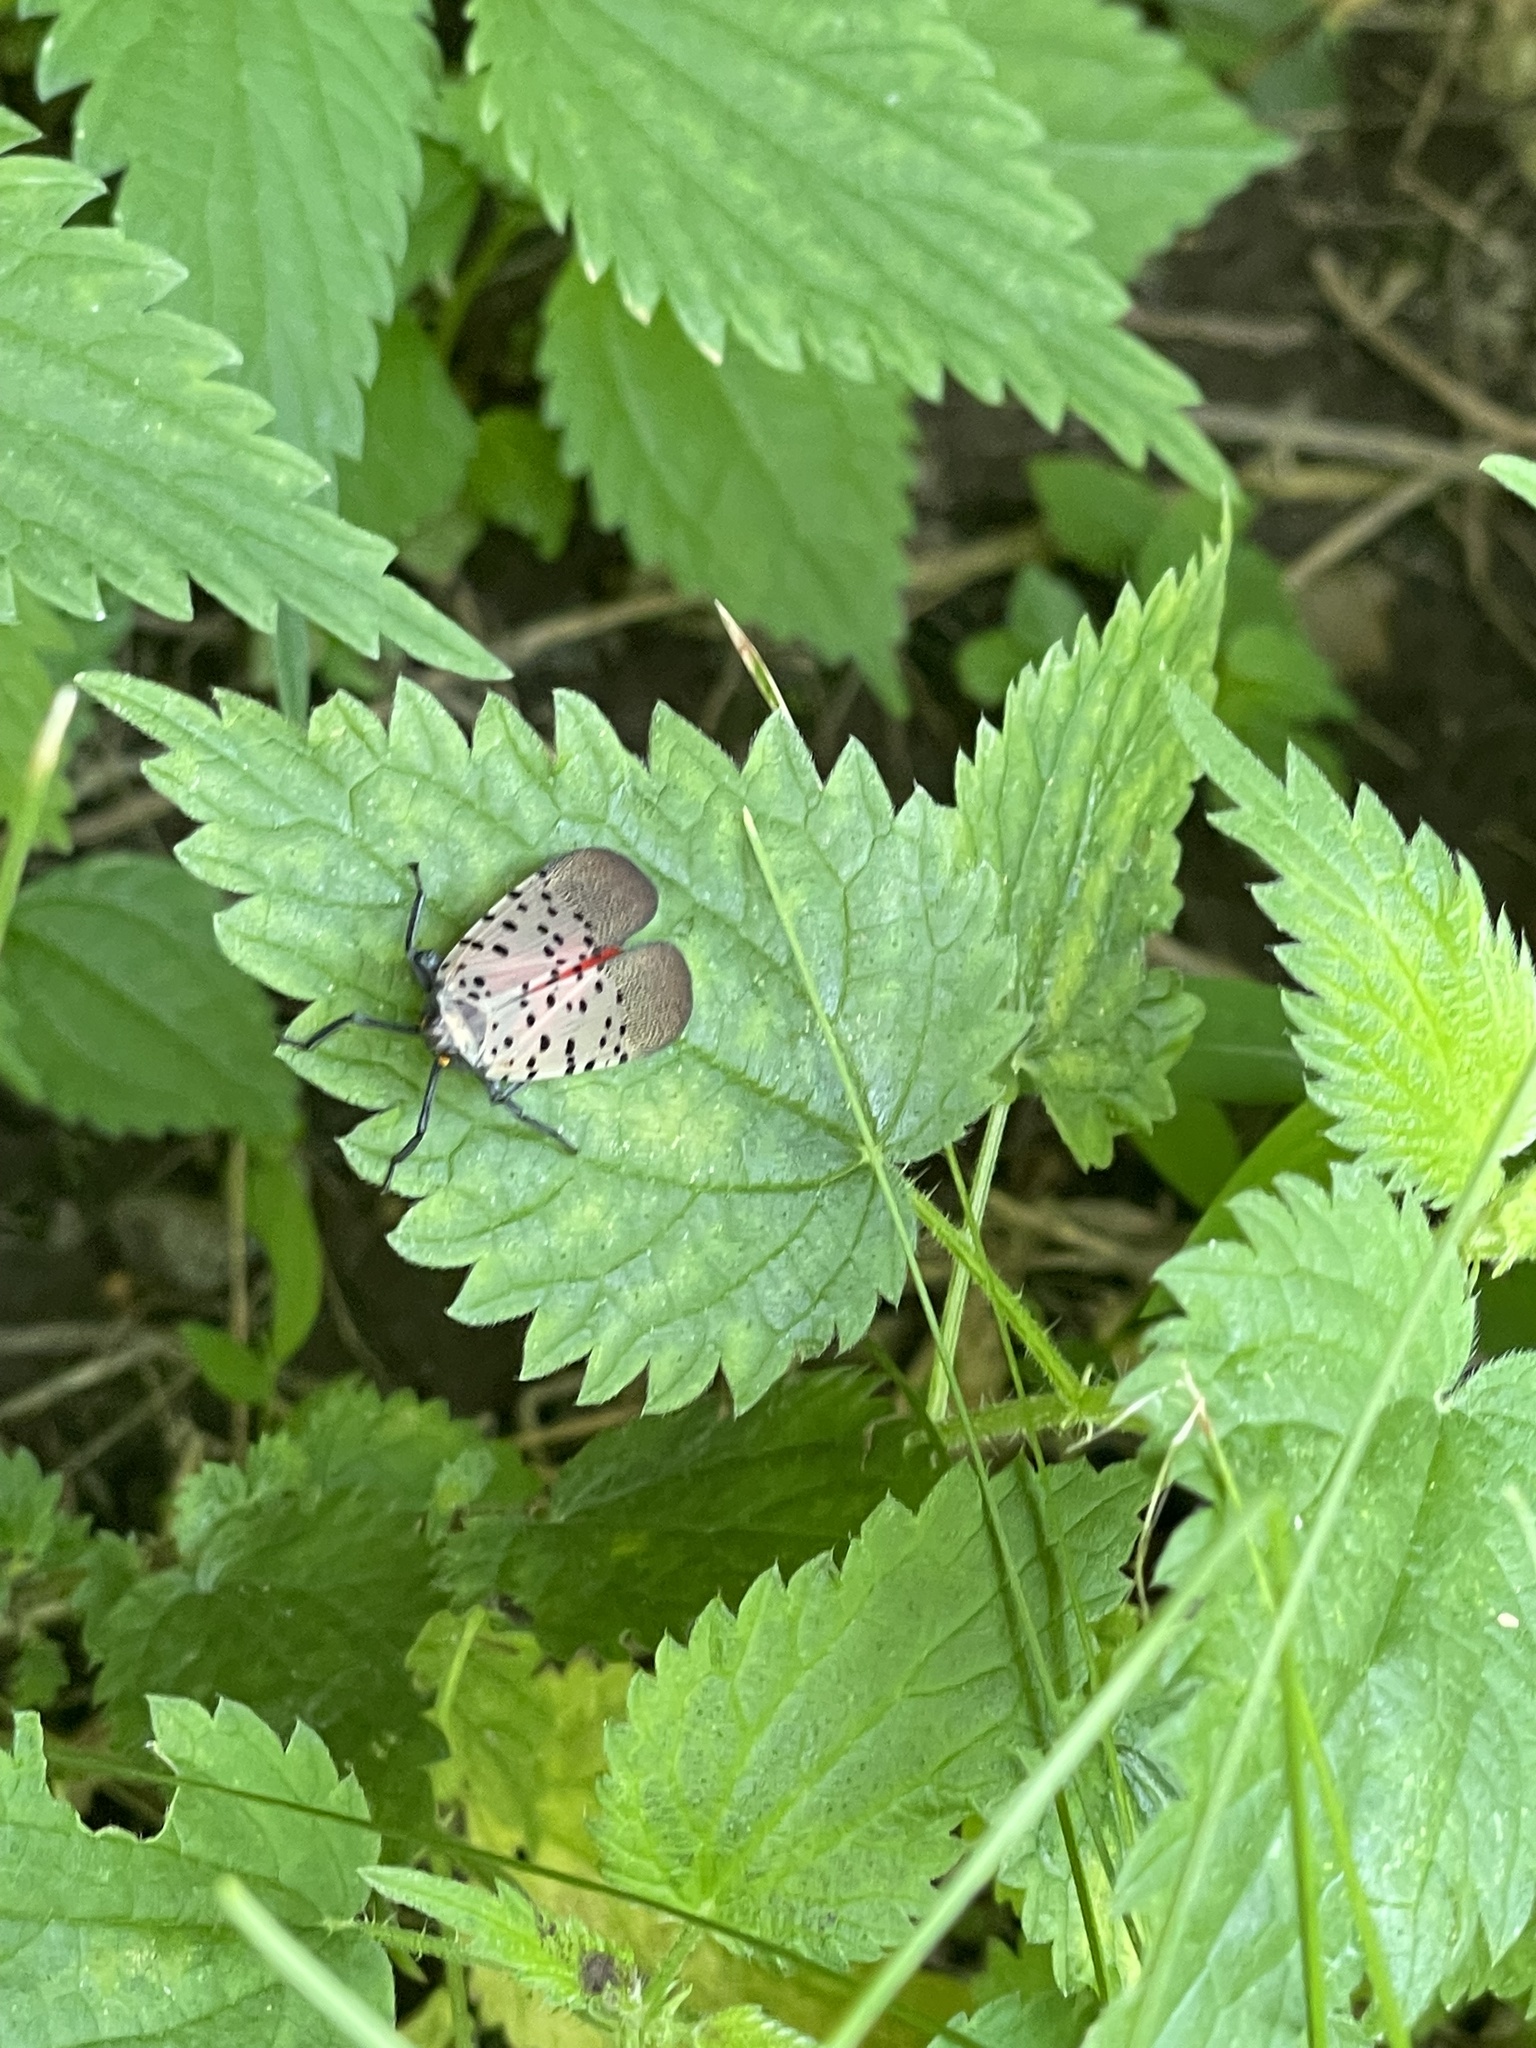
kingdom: Animalia
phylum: Arthropoda
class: Insecta
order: Hemiptera
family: Fulgoridae
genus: Lycorma
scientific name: Lycorma delicatula
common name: Spotted lanternfly
